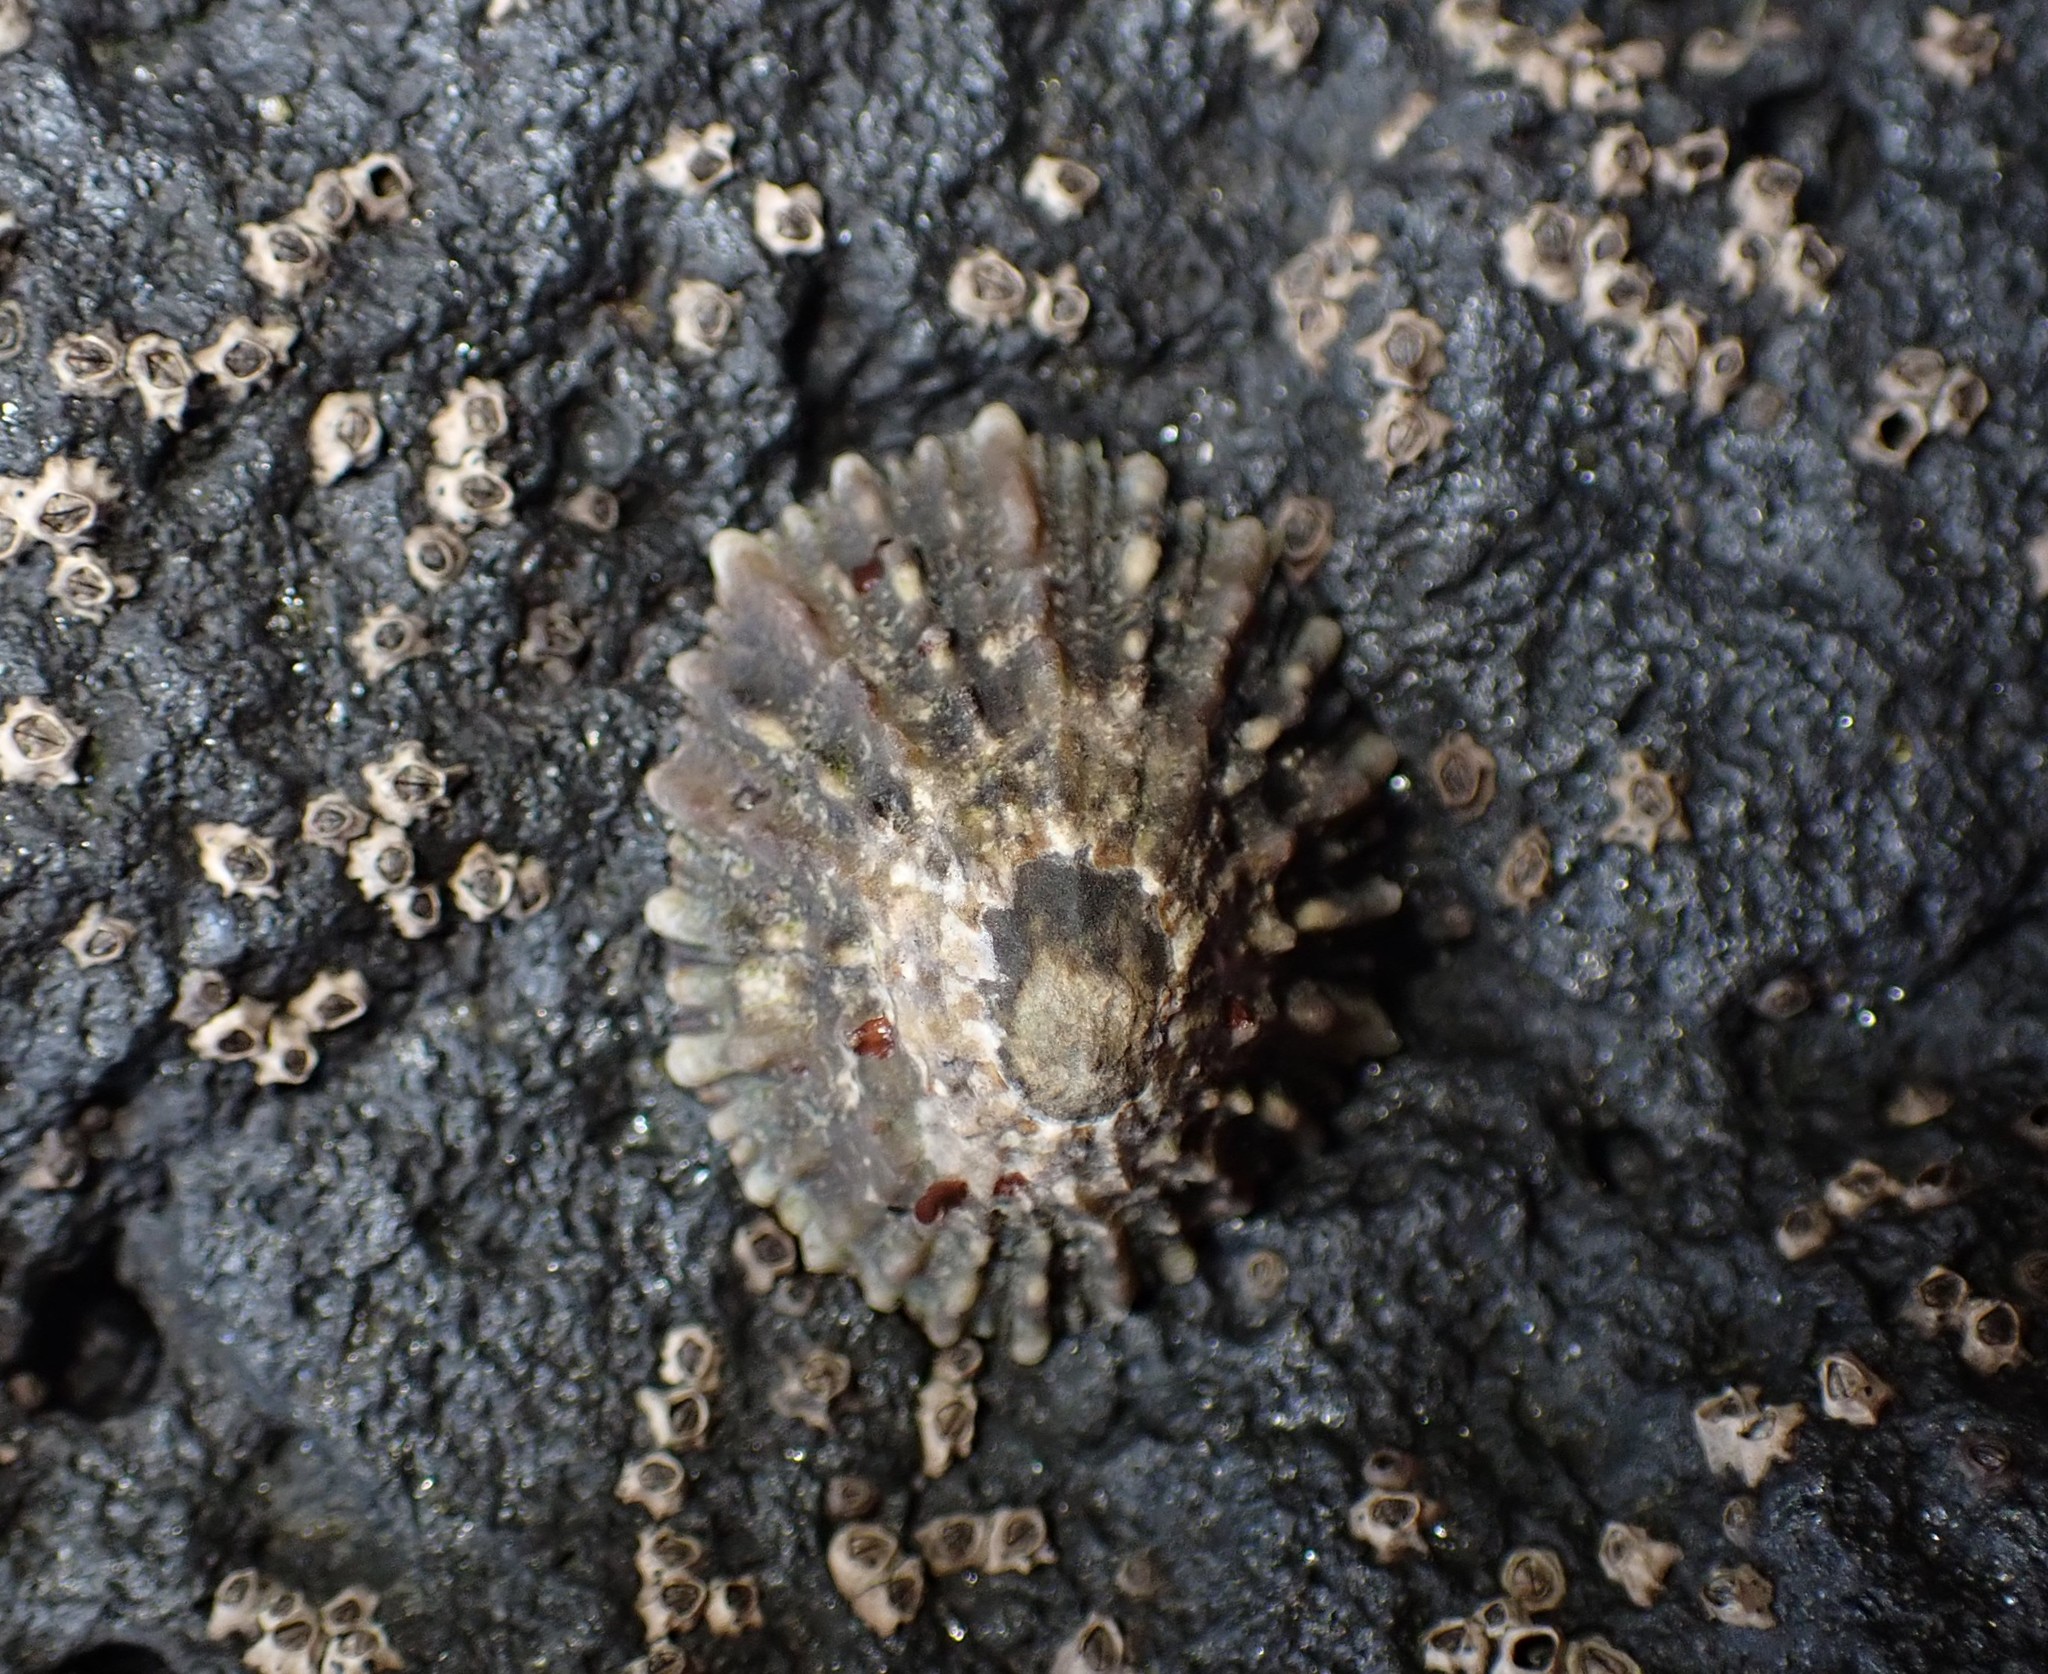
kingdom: Animalia
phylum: Mollusca
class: Gastropoda
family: Nacellidae
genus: Cellana
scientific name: Cellana ornata
